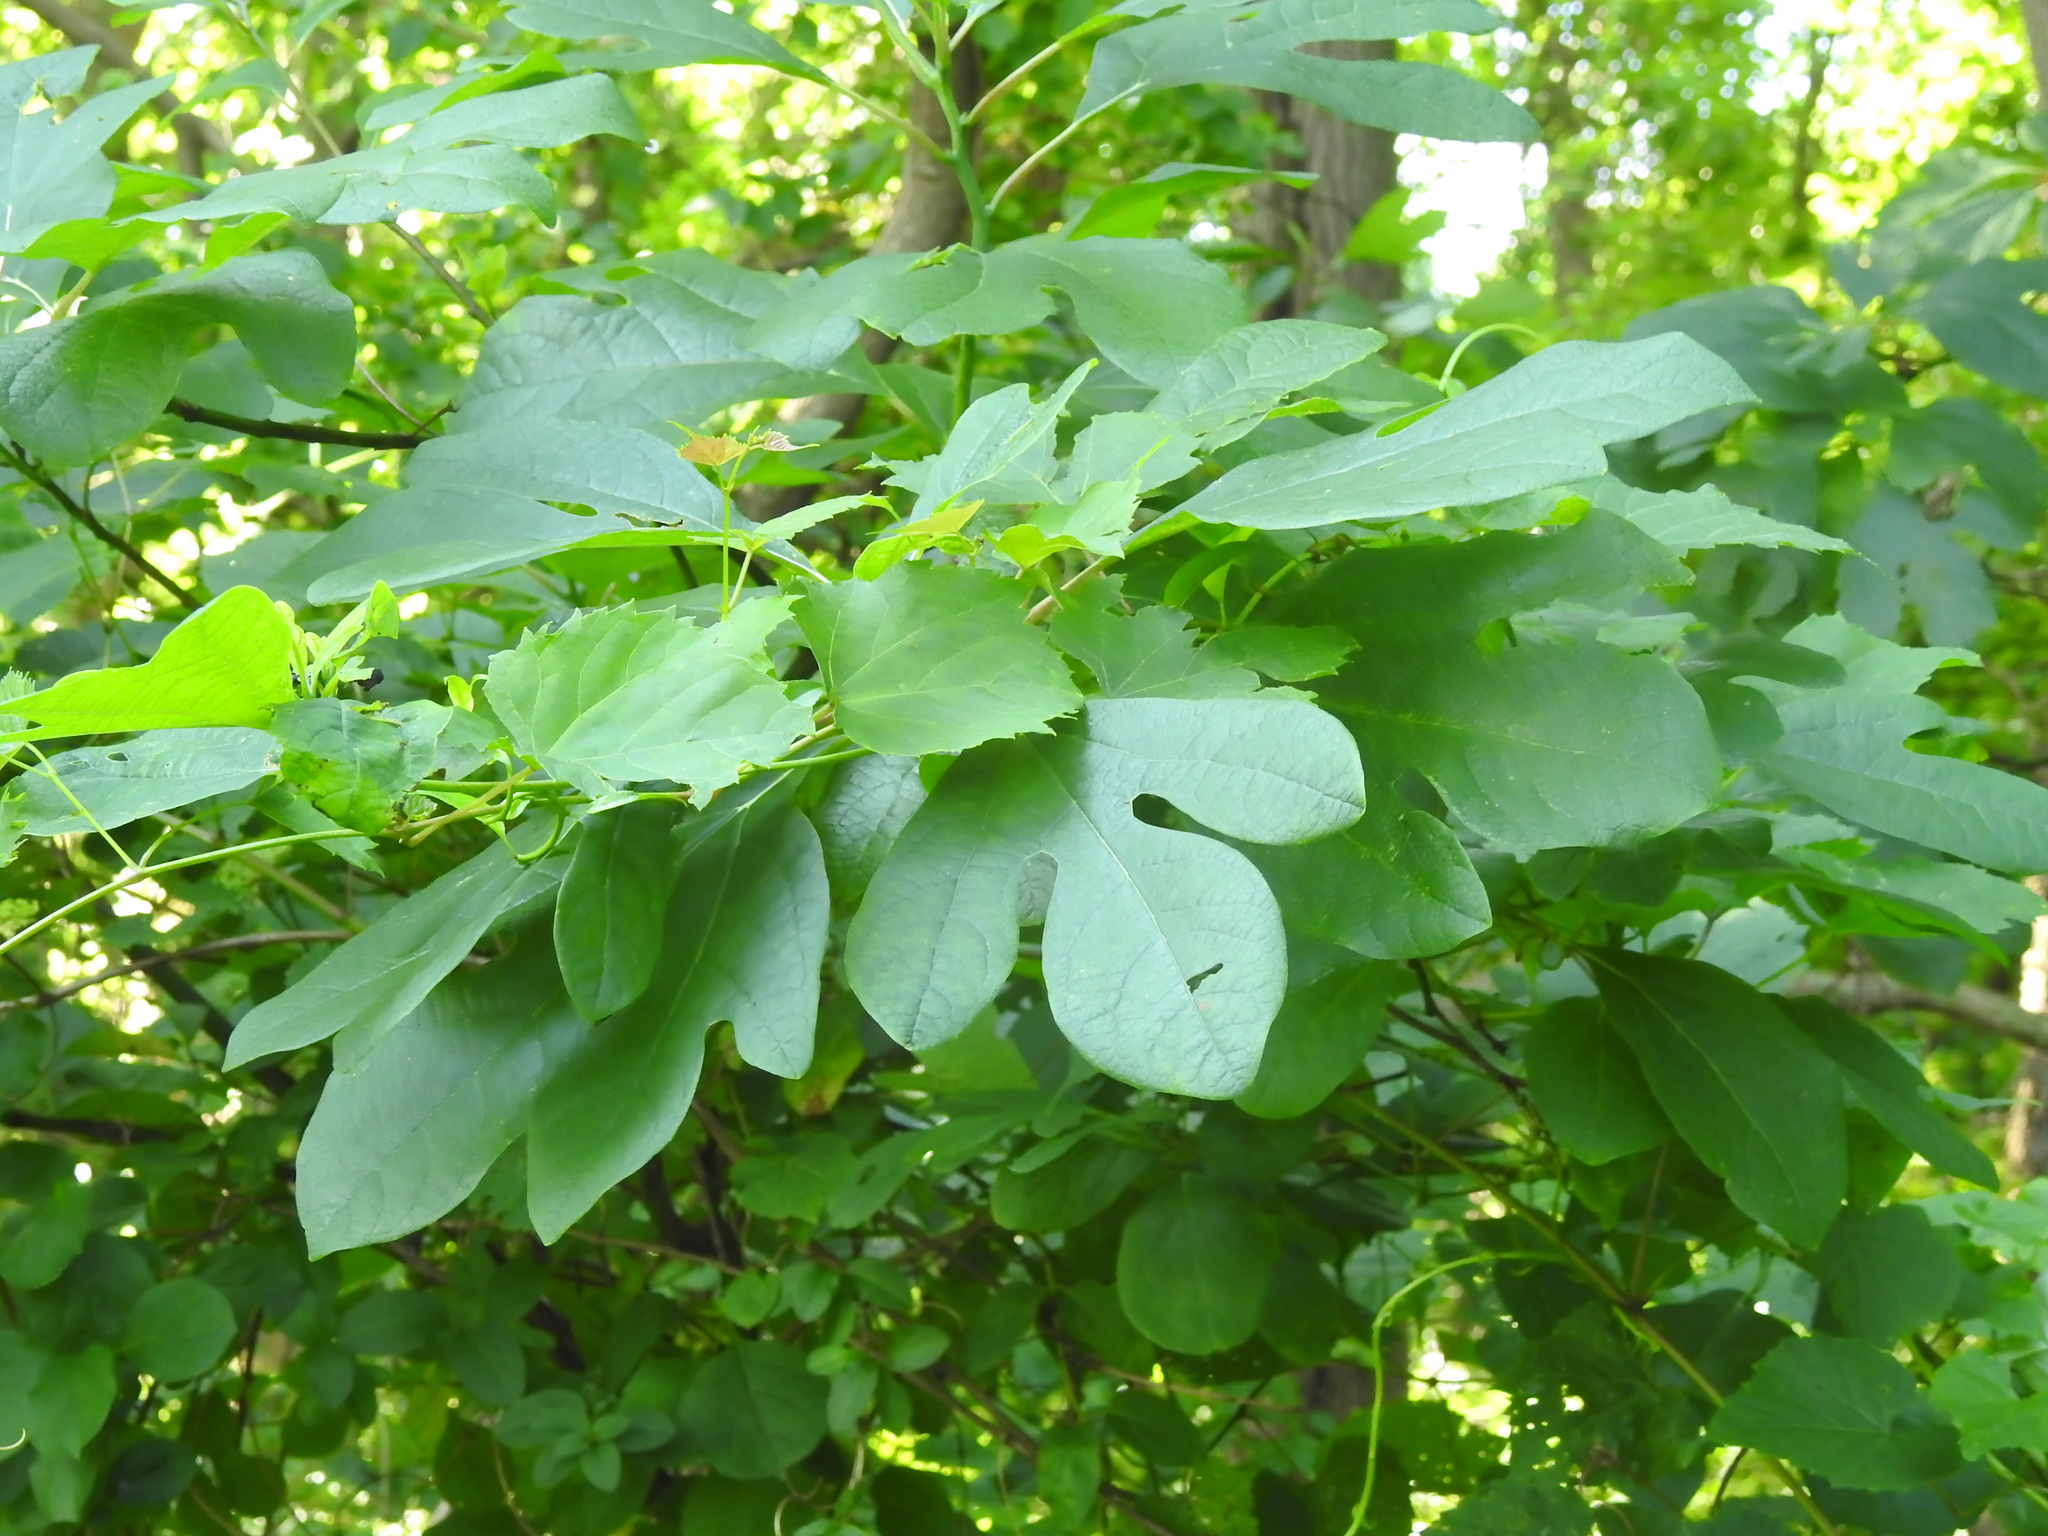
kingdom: Plantae
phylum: Tracheophyta
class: Magnoliopsida
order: Laurales
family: Lauraceae
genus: Sassafras
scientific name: Sassafras albidum
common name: Sassafras
